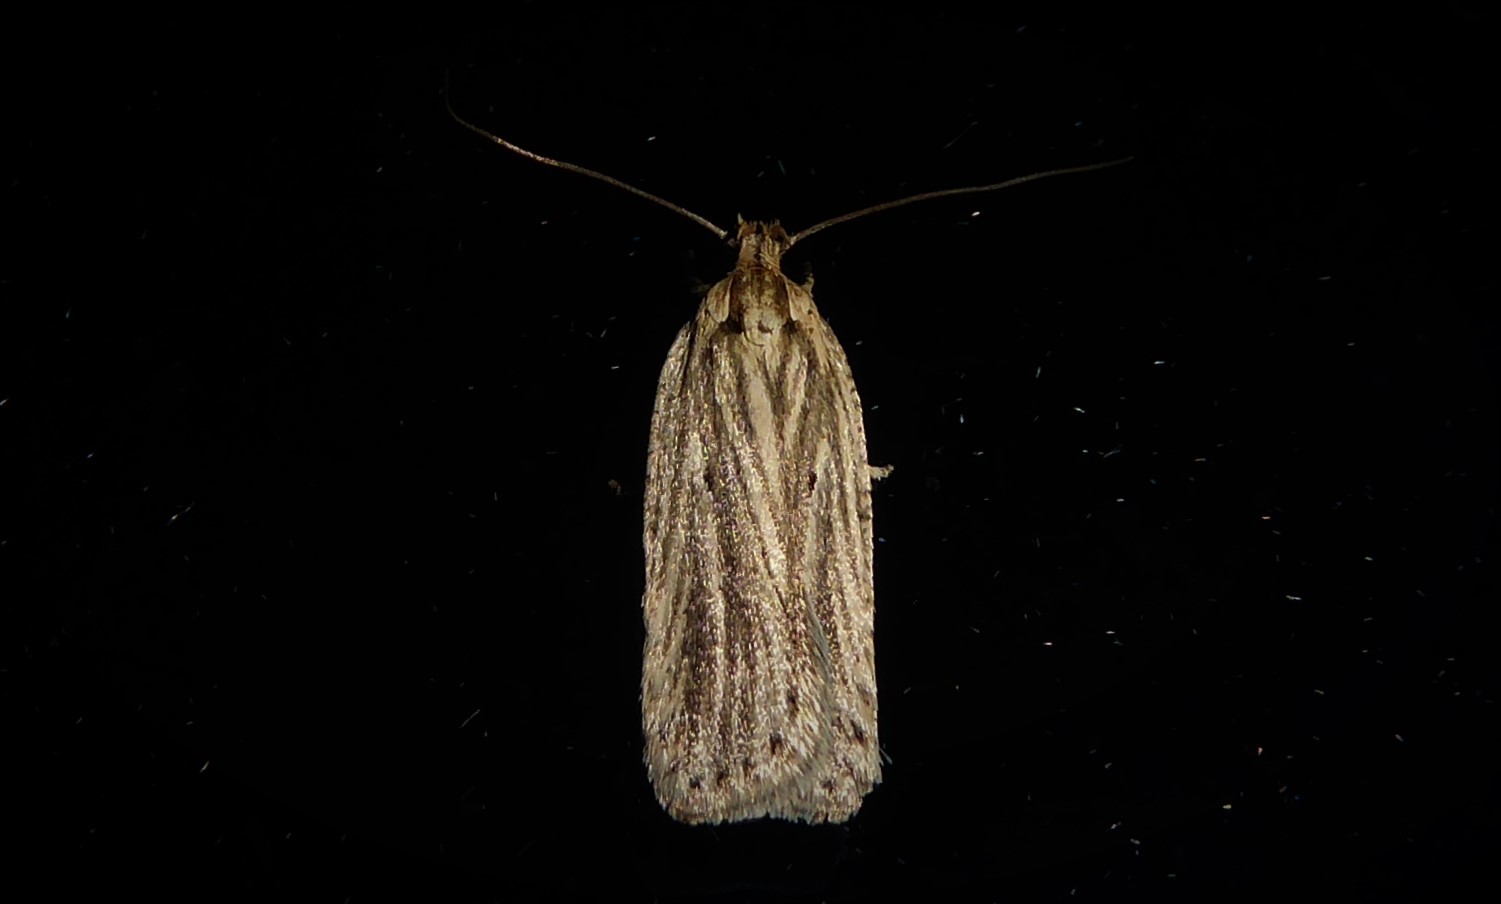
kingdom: Animalia
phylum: Arthropoda
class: Insecta
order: Lepidoptera
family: Depressariidae
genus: Agonopterix
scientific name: Agonopterix
